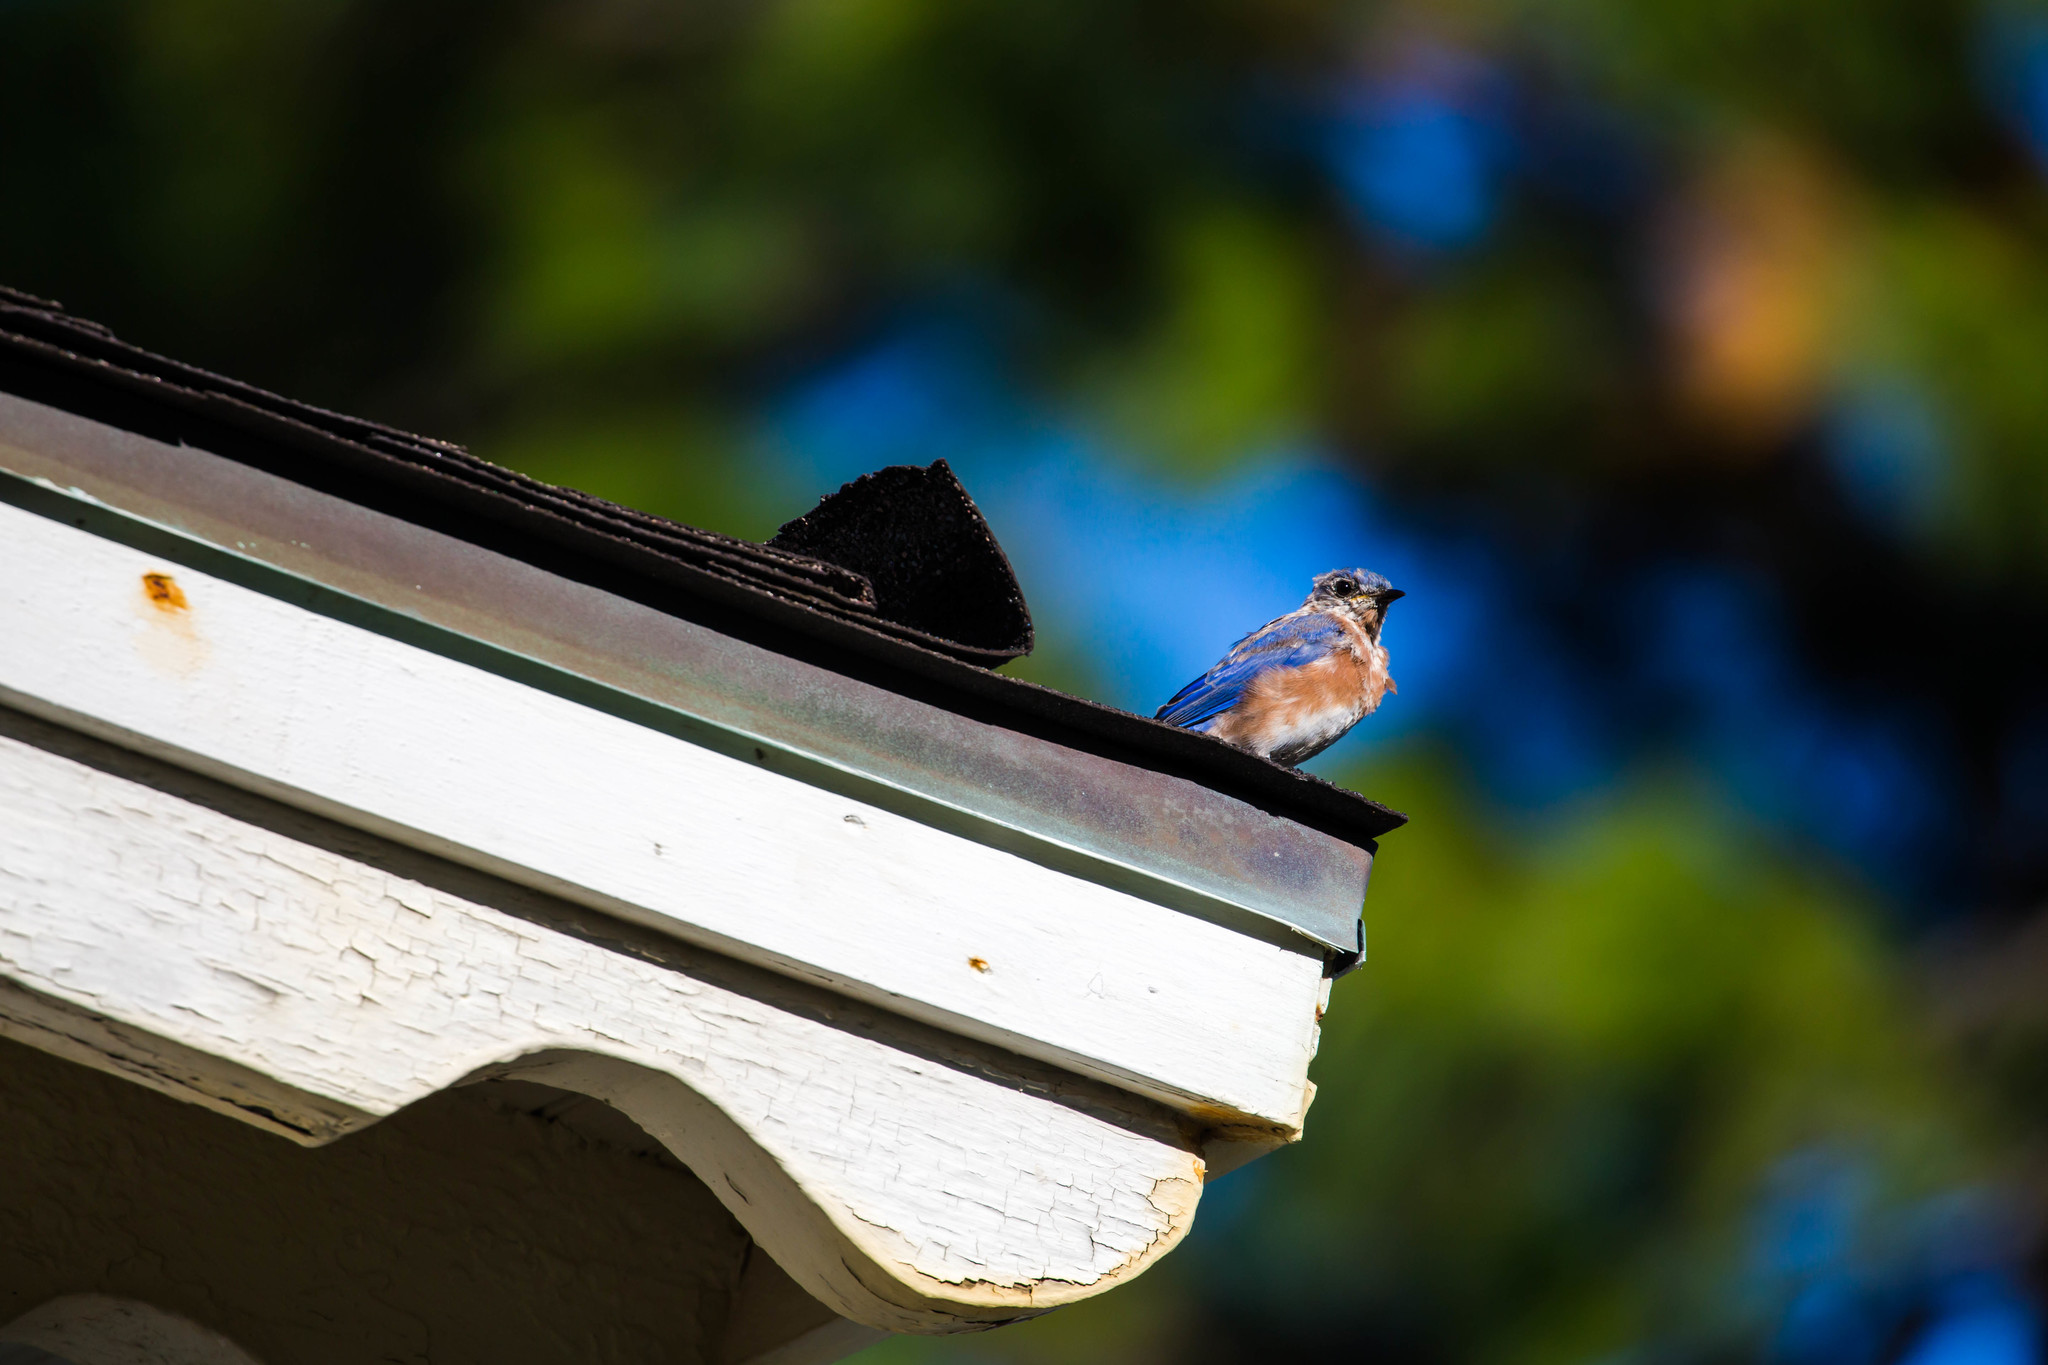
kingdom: Animalia
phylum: Chordata
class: Aves
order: Passeriformes
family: Turdidae
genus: Sialia
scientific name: Sialia sialis
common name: Eastern bluebird
